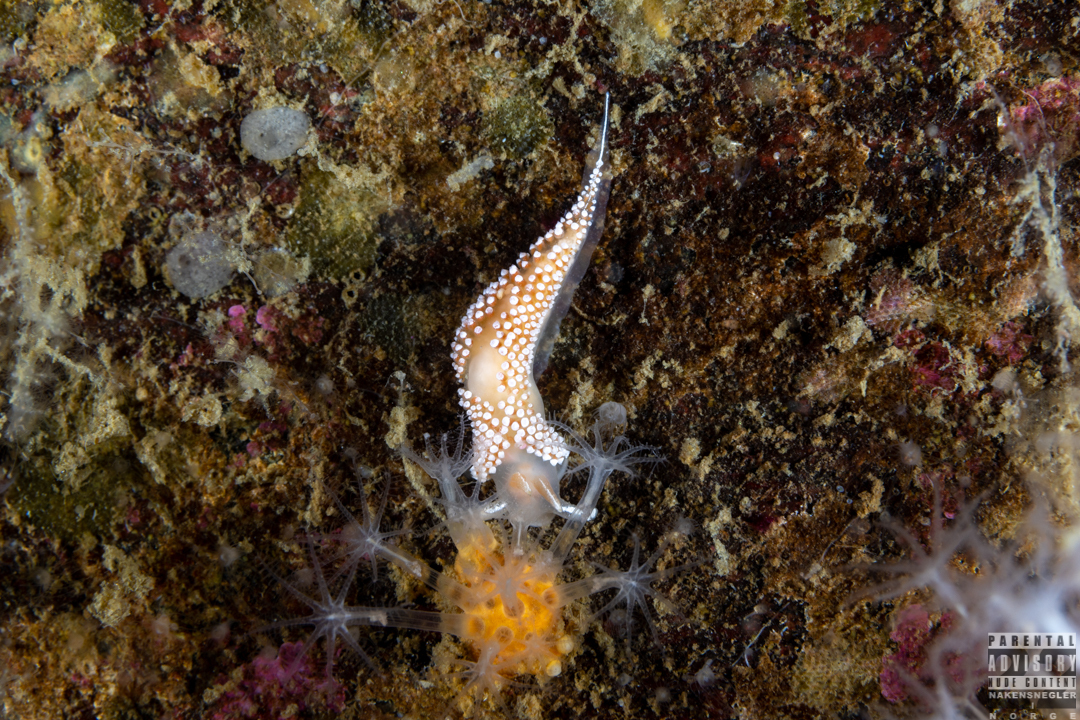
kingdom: Animalia
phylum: Mollusca
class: Gastropoda
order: Nudibranchia
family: Coryphellidae
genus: Coryphella
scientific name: Coryphella verrucosa
